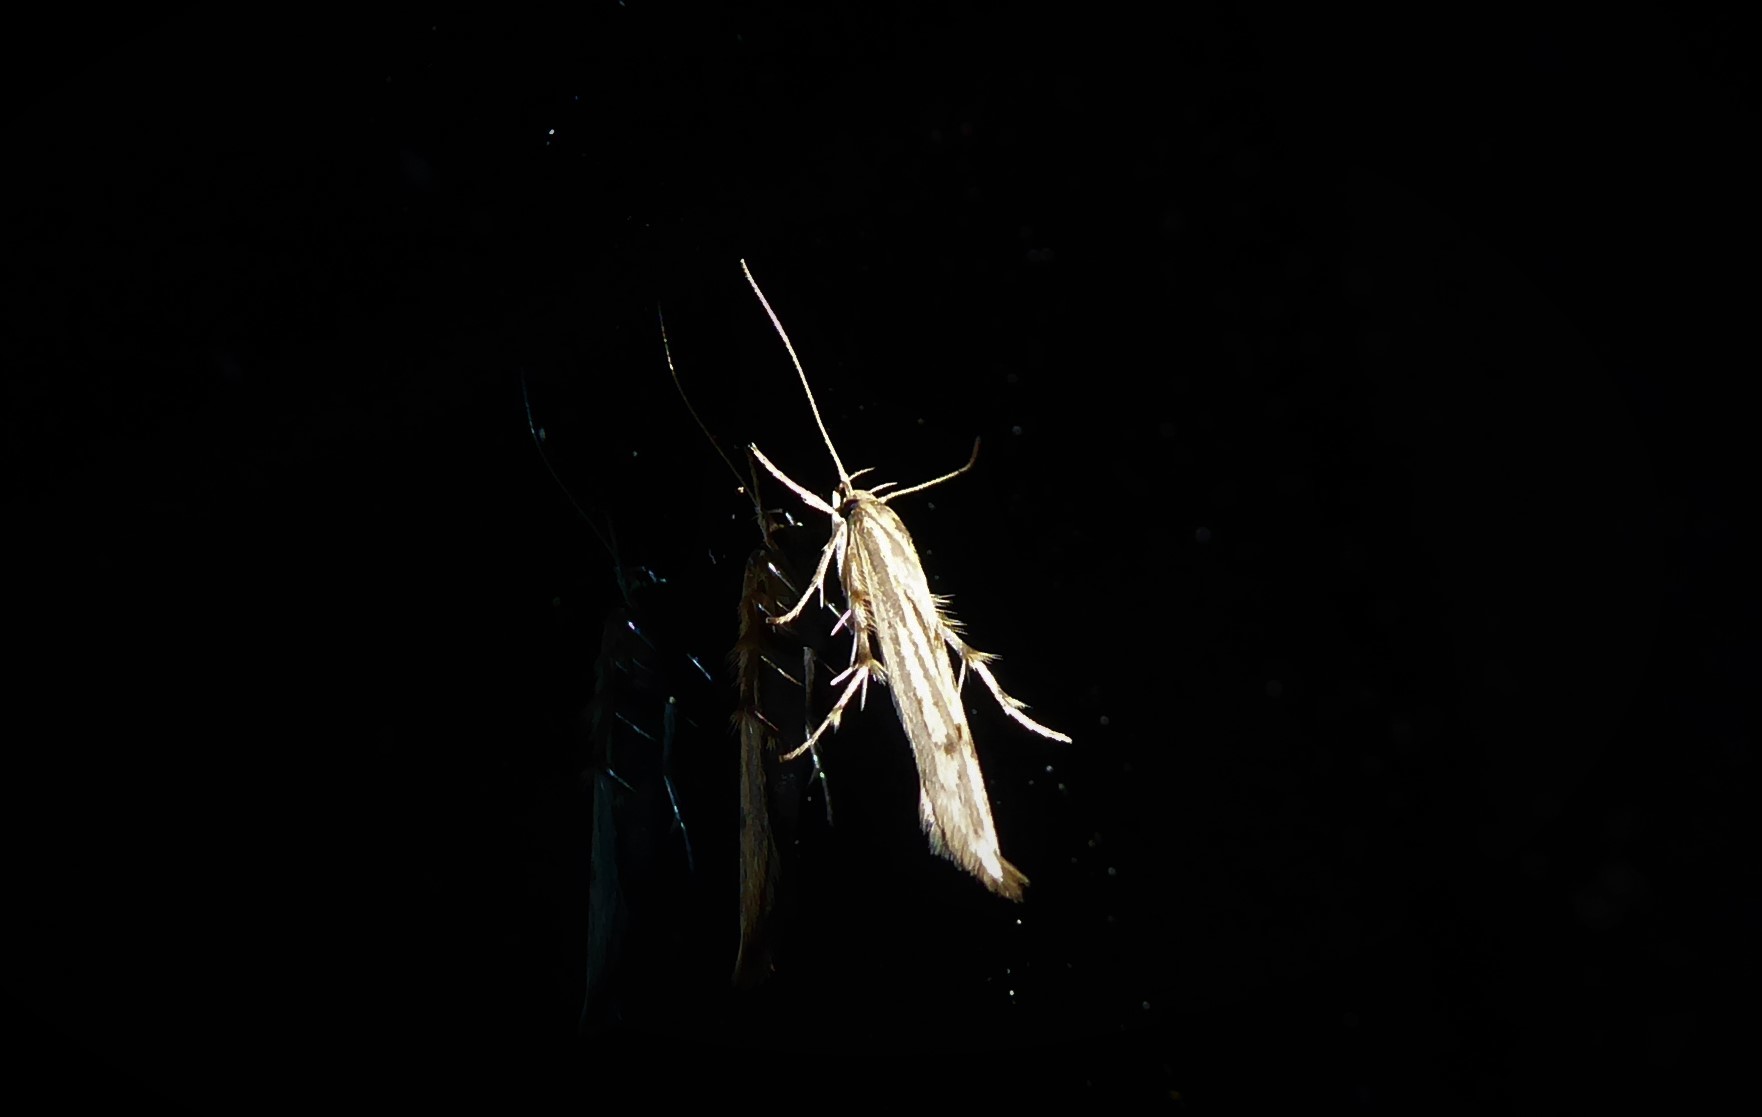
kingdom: Animalia
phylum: Arthropoda
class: Insecta
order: Lepidoptera
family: Stathmopodidae
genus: Stathmopoda
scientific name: Stathmopoda plumbiflua
